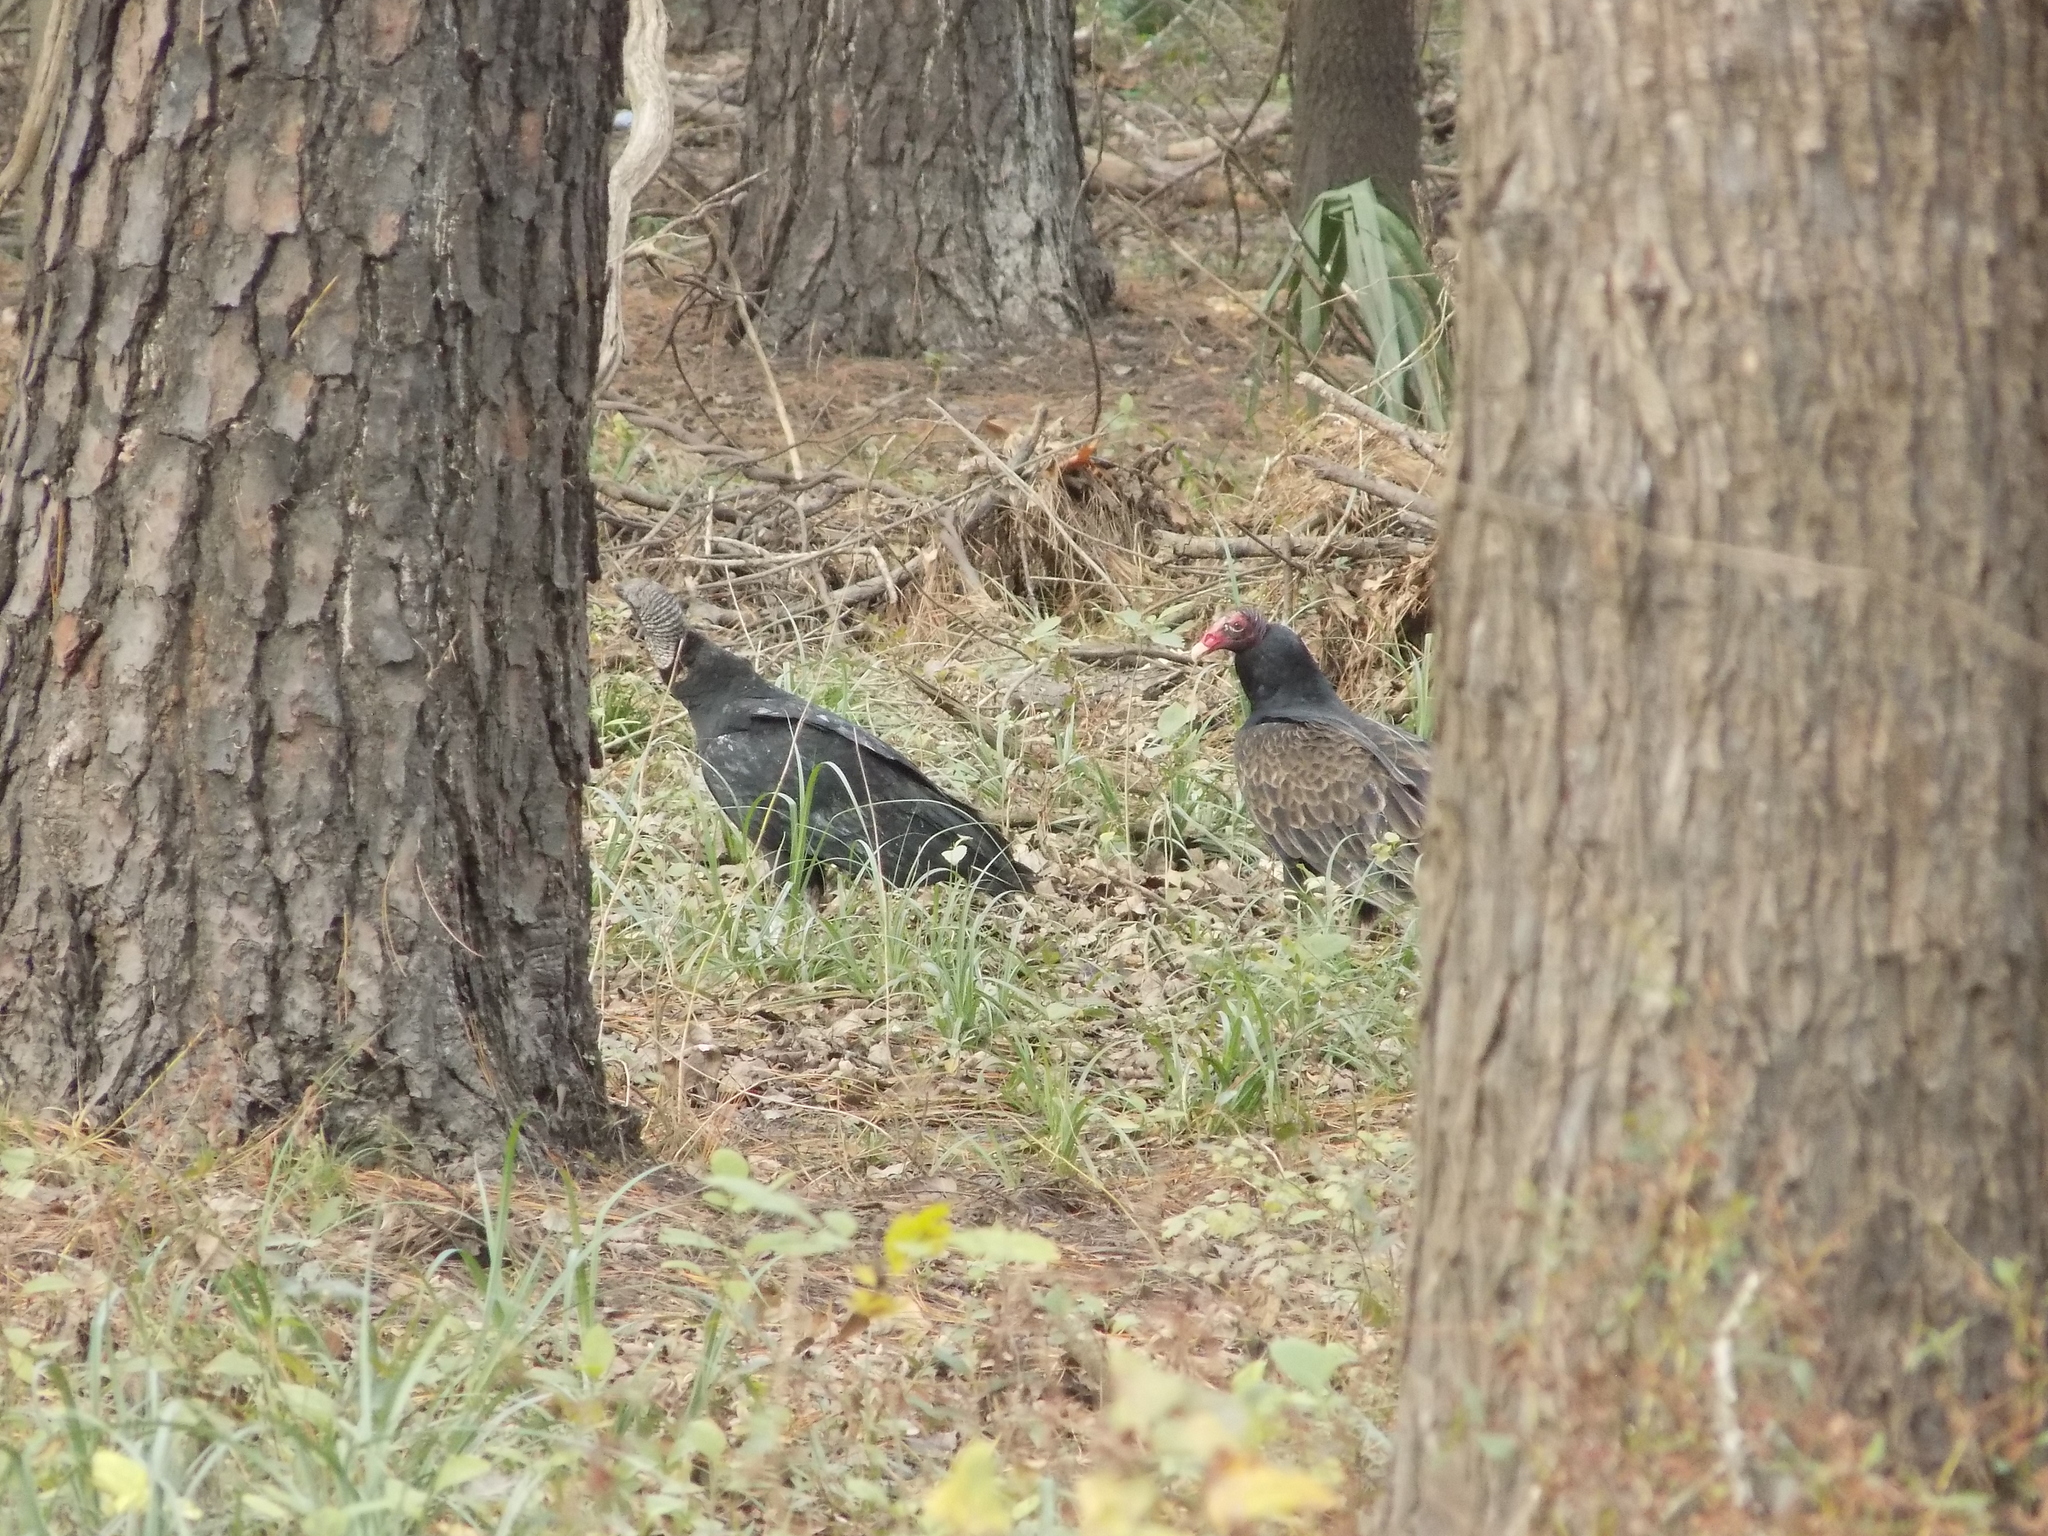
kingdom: Animalia
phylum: Chordata
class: Aves
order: Accipitriformes
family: Cathartidae
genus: Coragyps
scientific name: Coragyps atratus
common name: Black vulture
